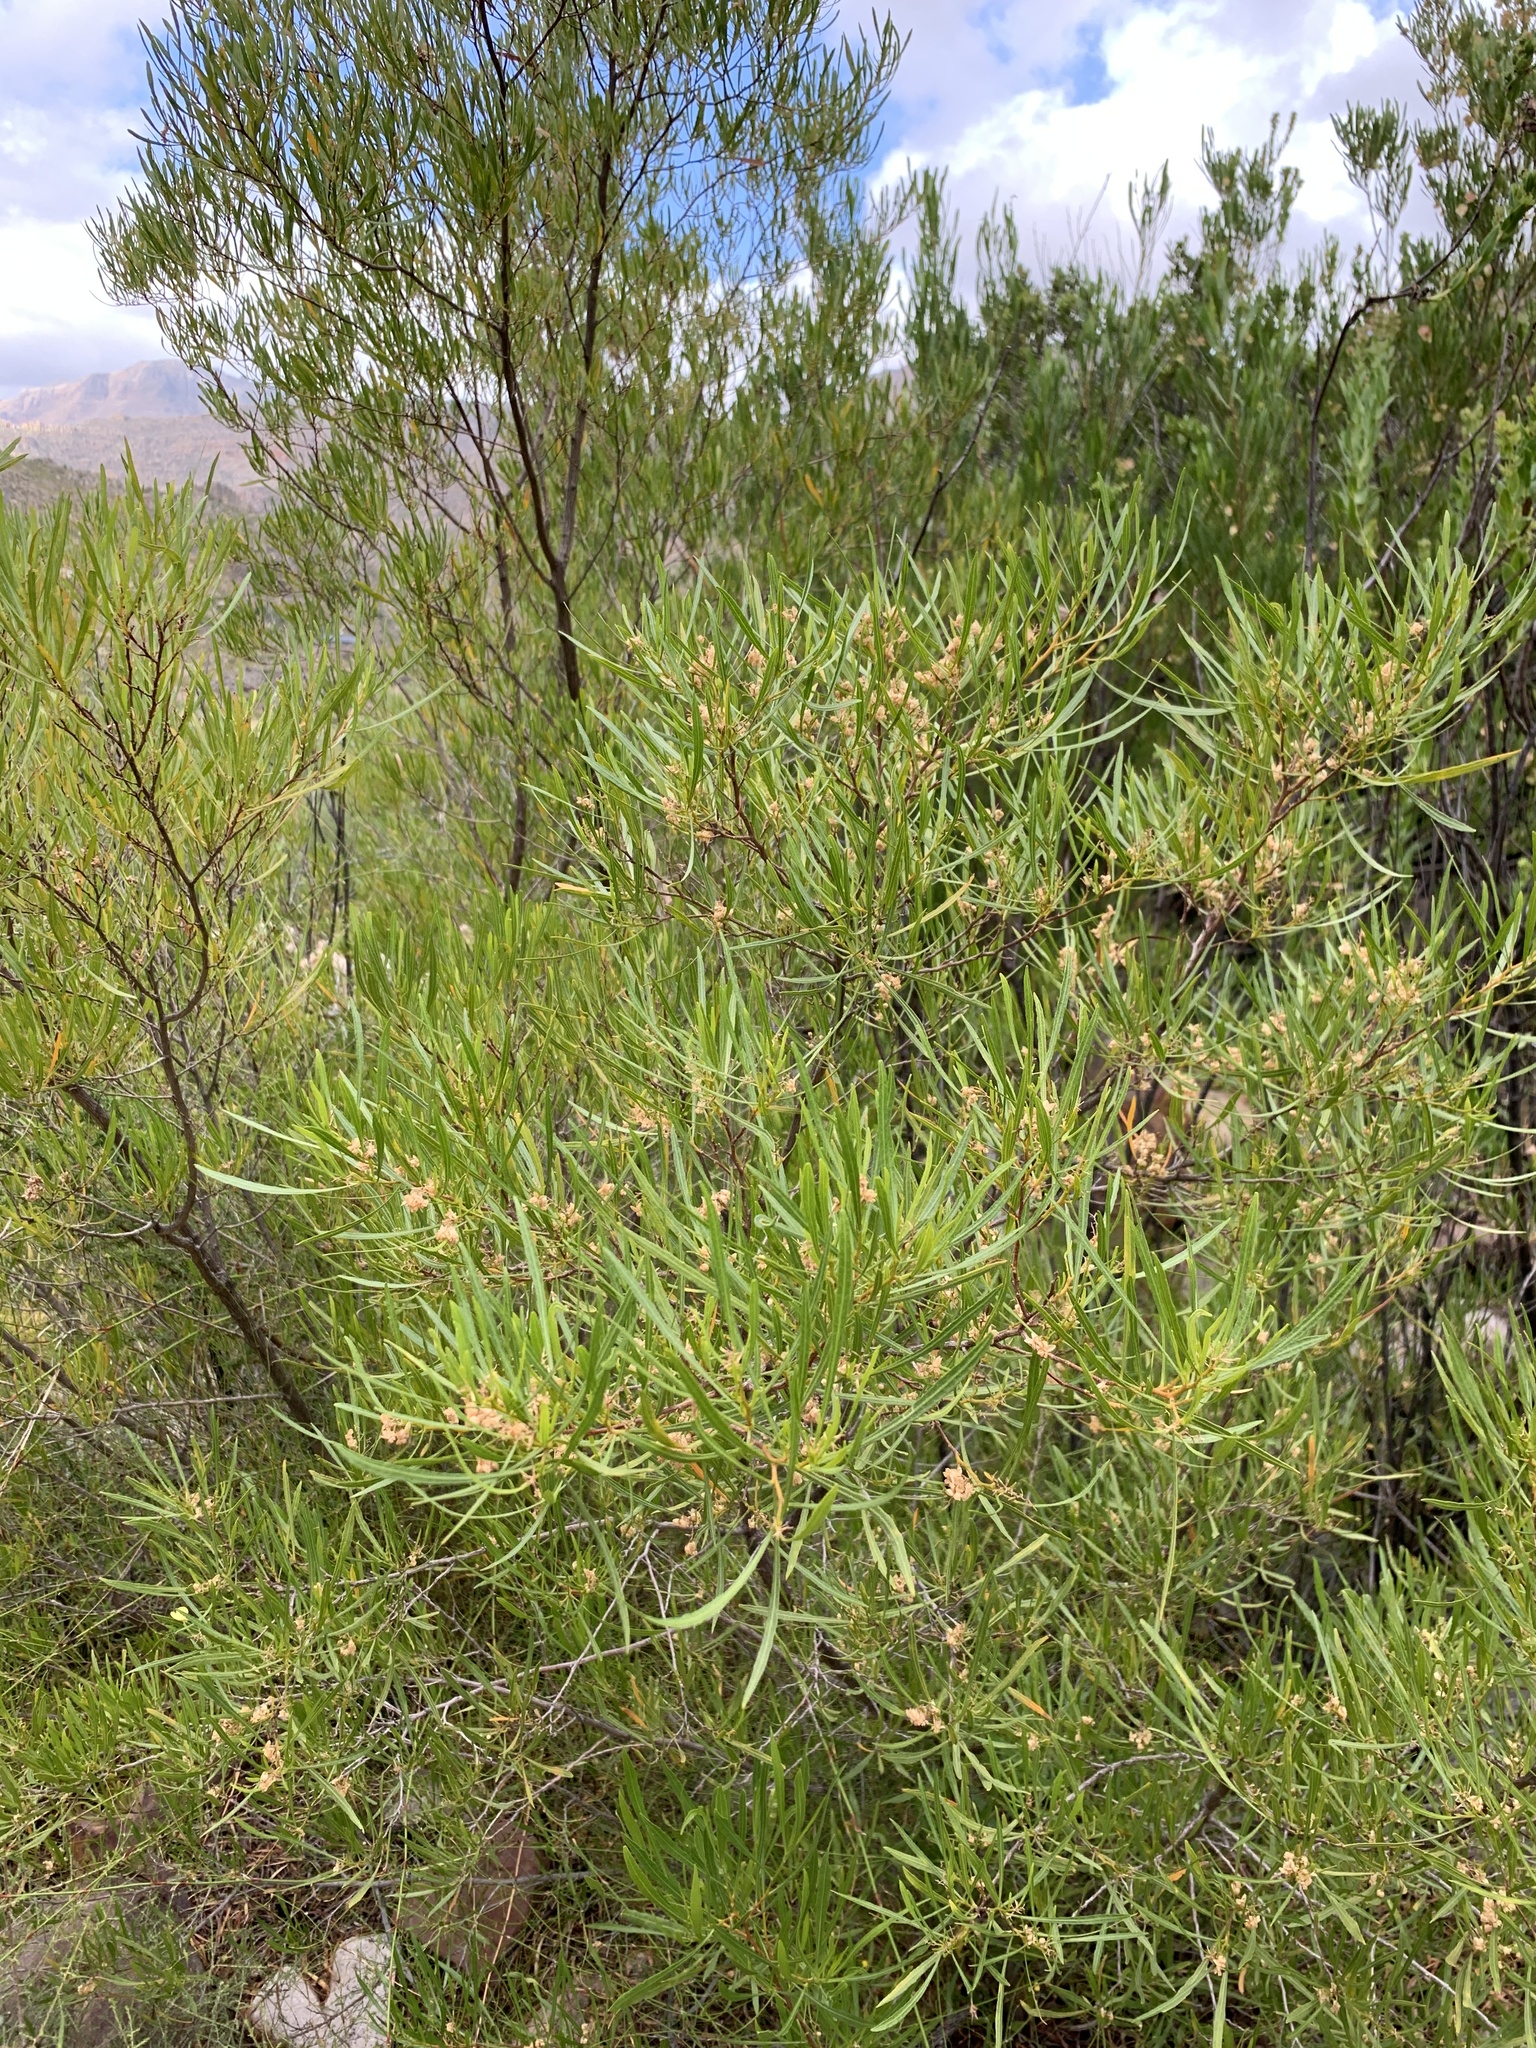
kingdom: Plantae
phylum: Tracheophyta
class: Magnoliopsida
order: Myrtales
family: Myrtaceae
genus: Callistemon
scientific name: Callistemon lanceolatus
